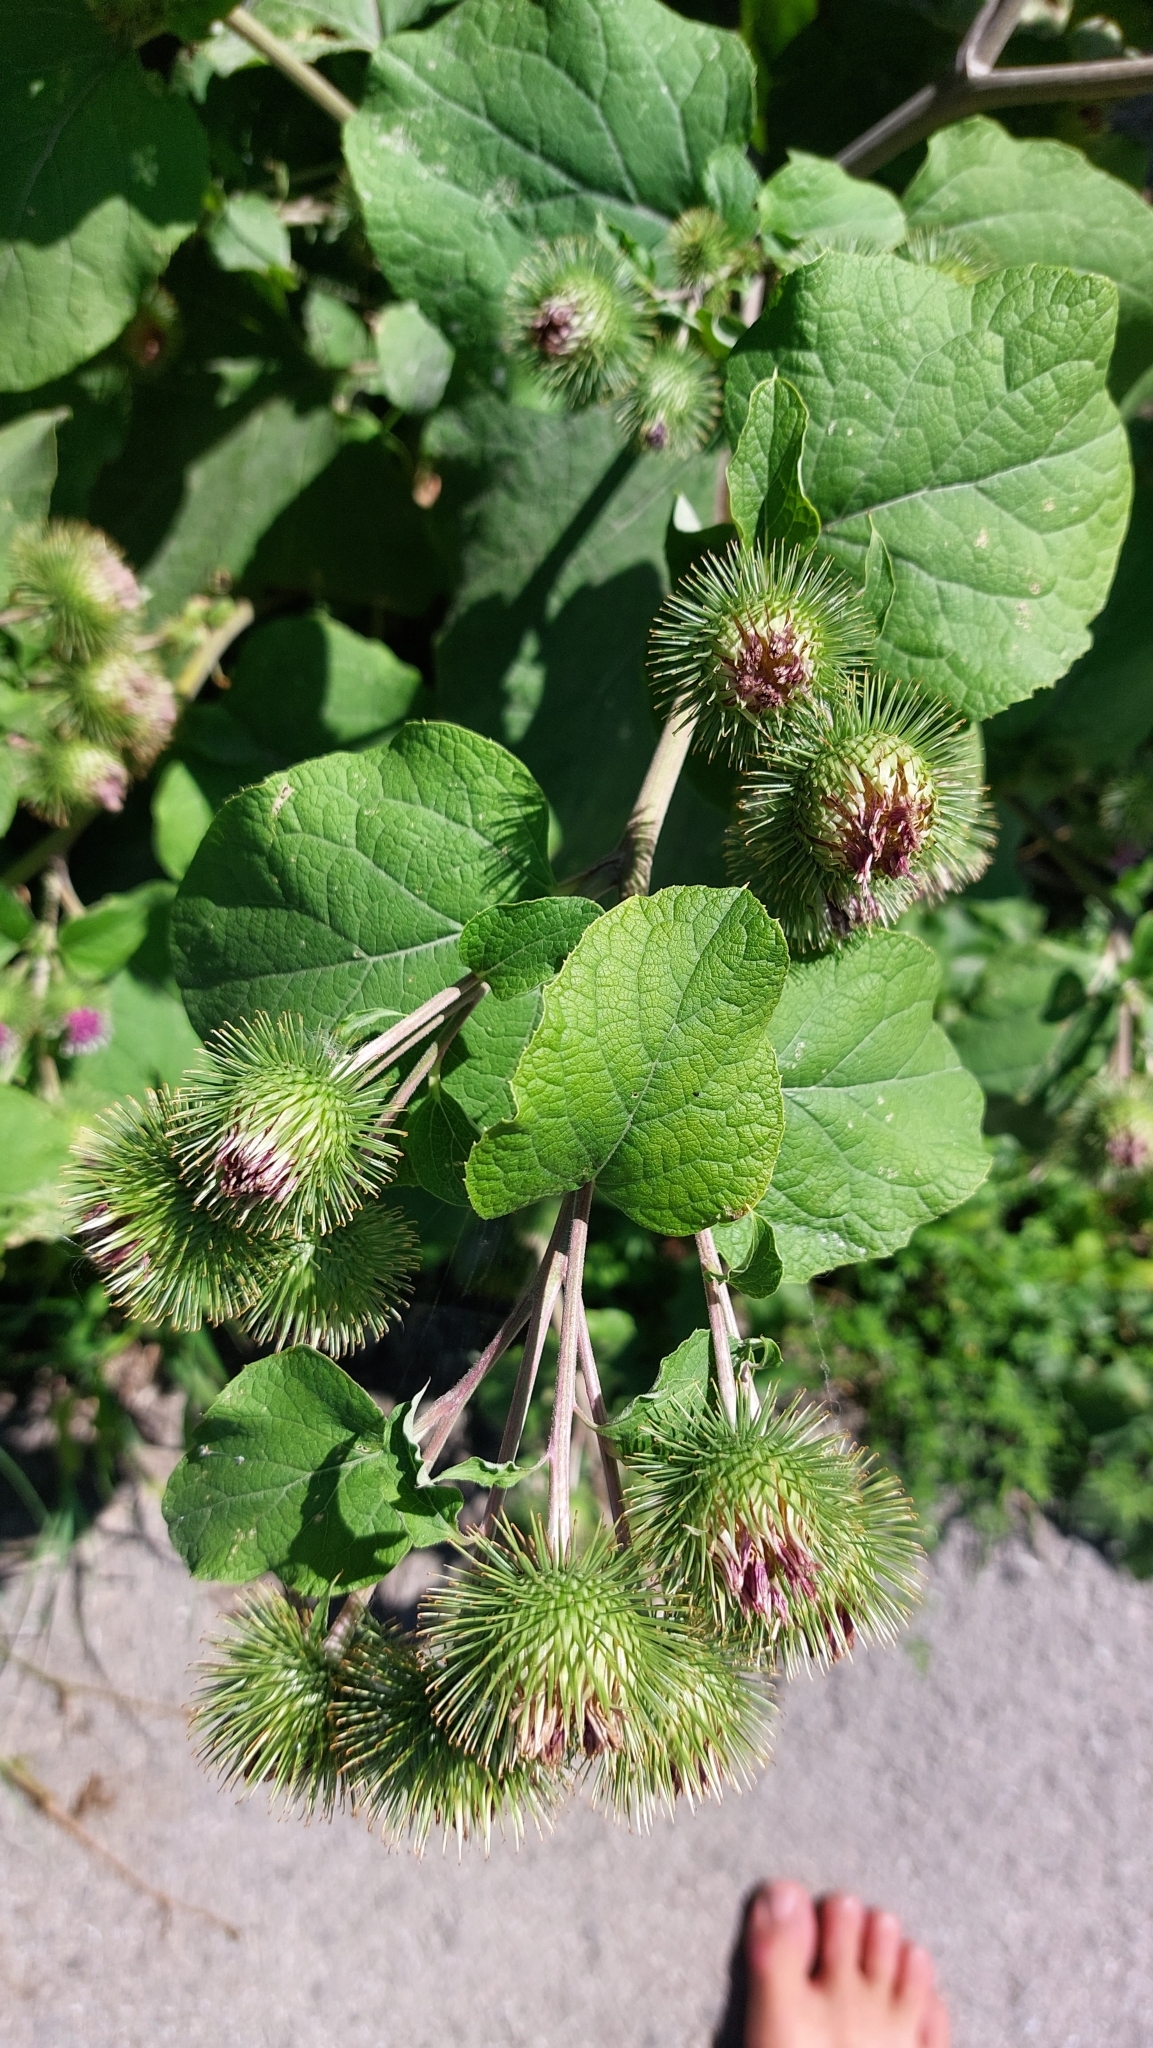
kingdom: Plantae
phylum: Tracheophyta
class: Magnoliopsida
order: Asterales
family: Asteraceae
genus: Arctium
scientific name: Arctium lappa
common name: Greater burdock
